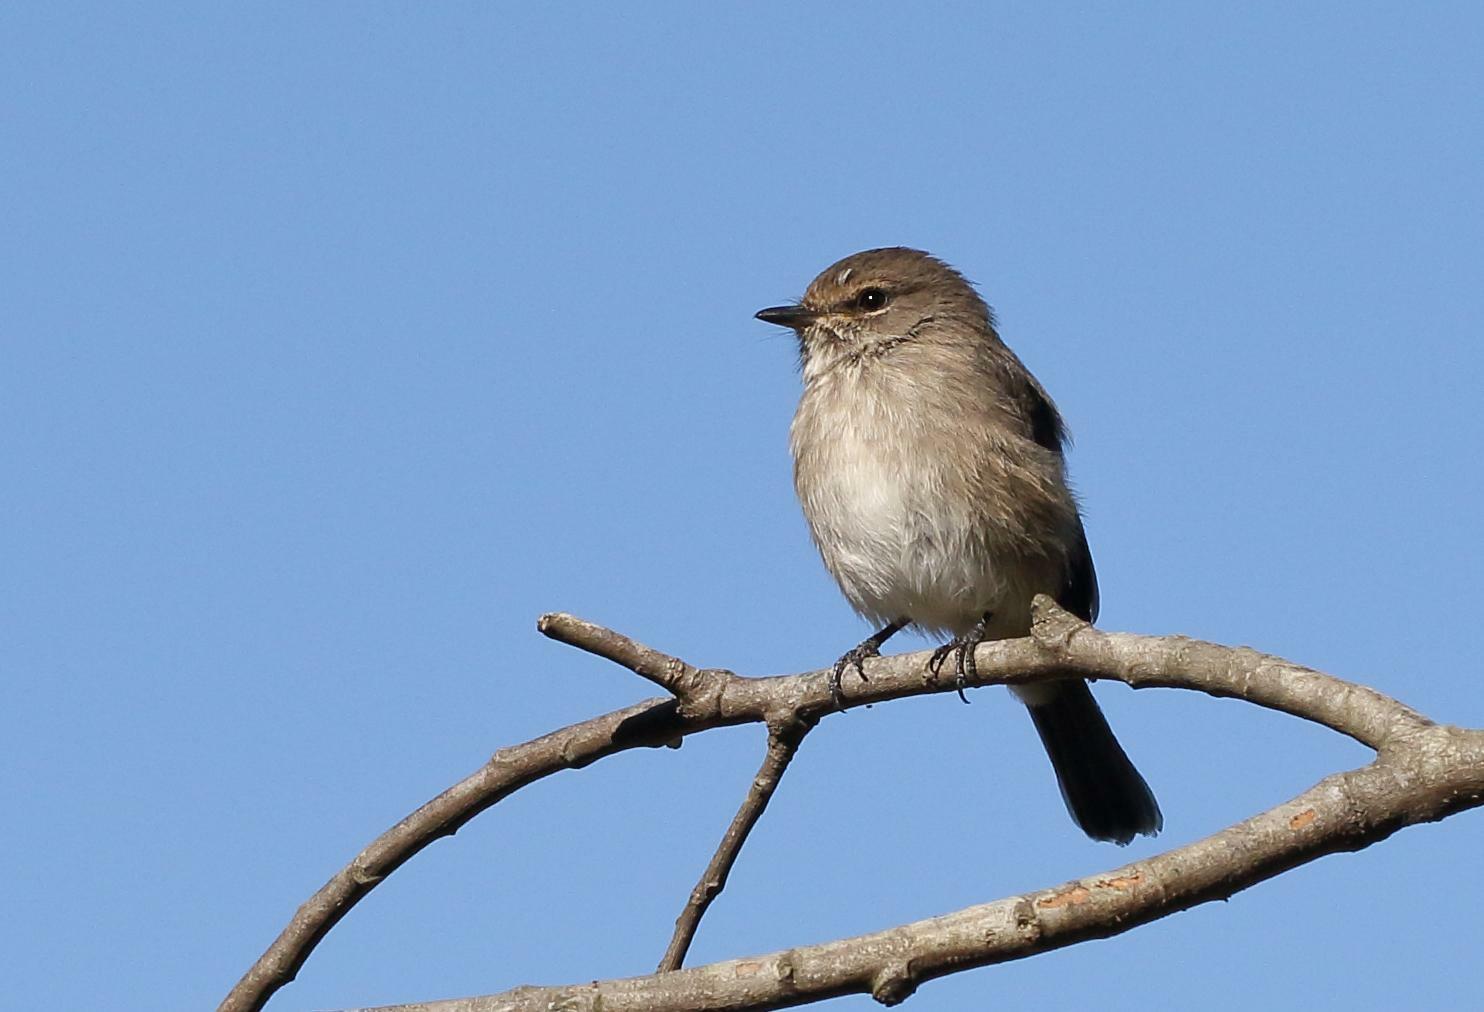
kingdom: Animalia
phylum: Chordata
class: Aves
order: Passeriformes
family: Muscicapidae
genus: Muscicapa
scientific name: Muscicapa adusta
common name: African dusky flycatcher
